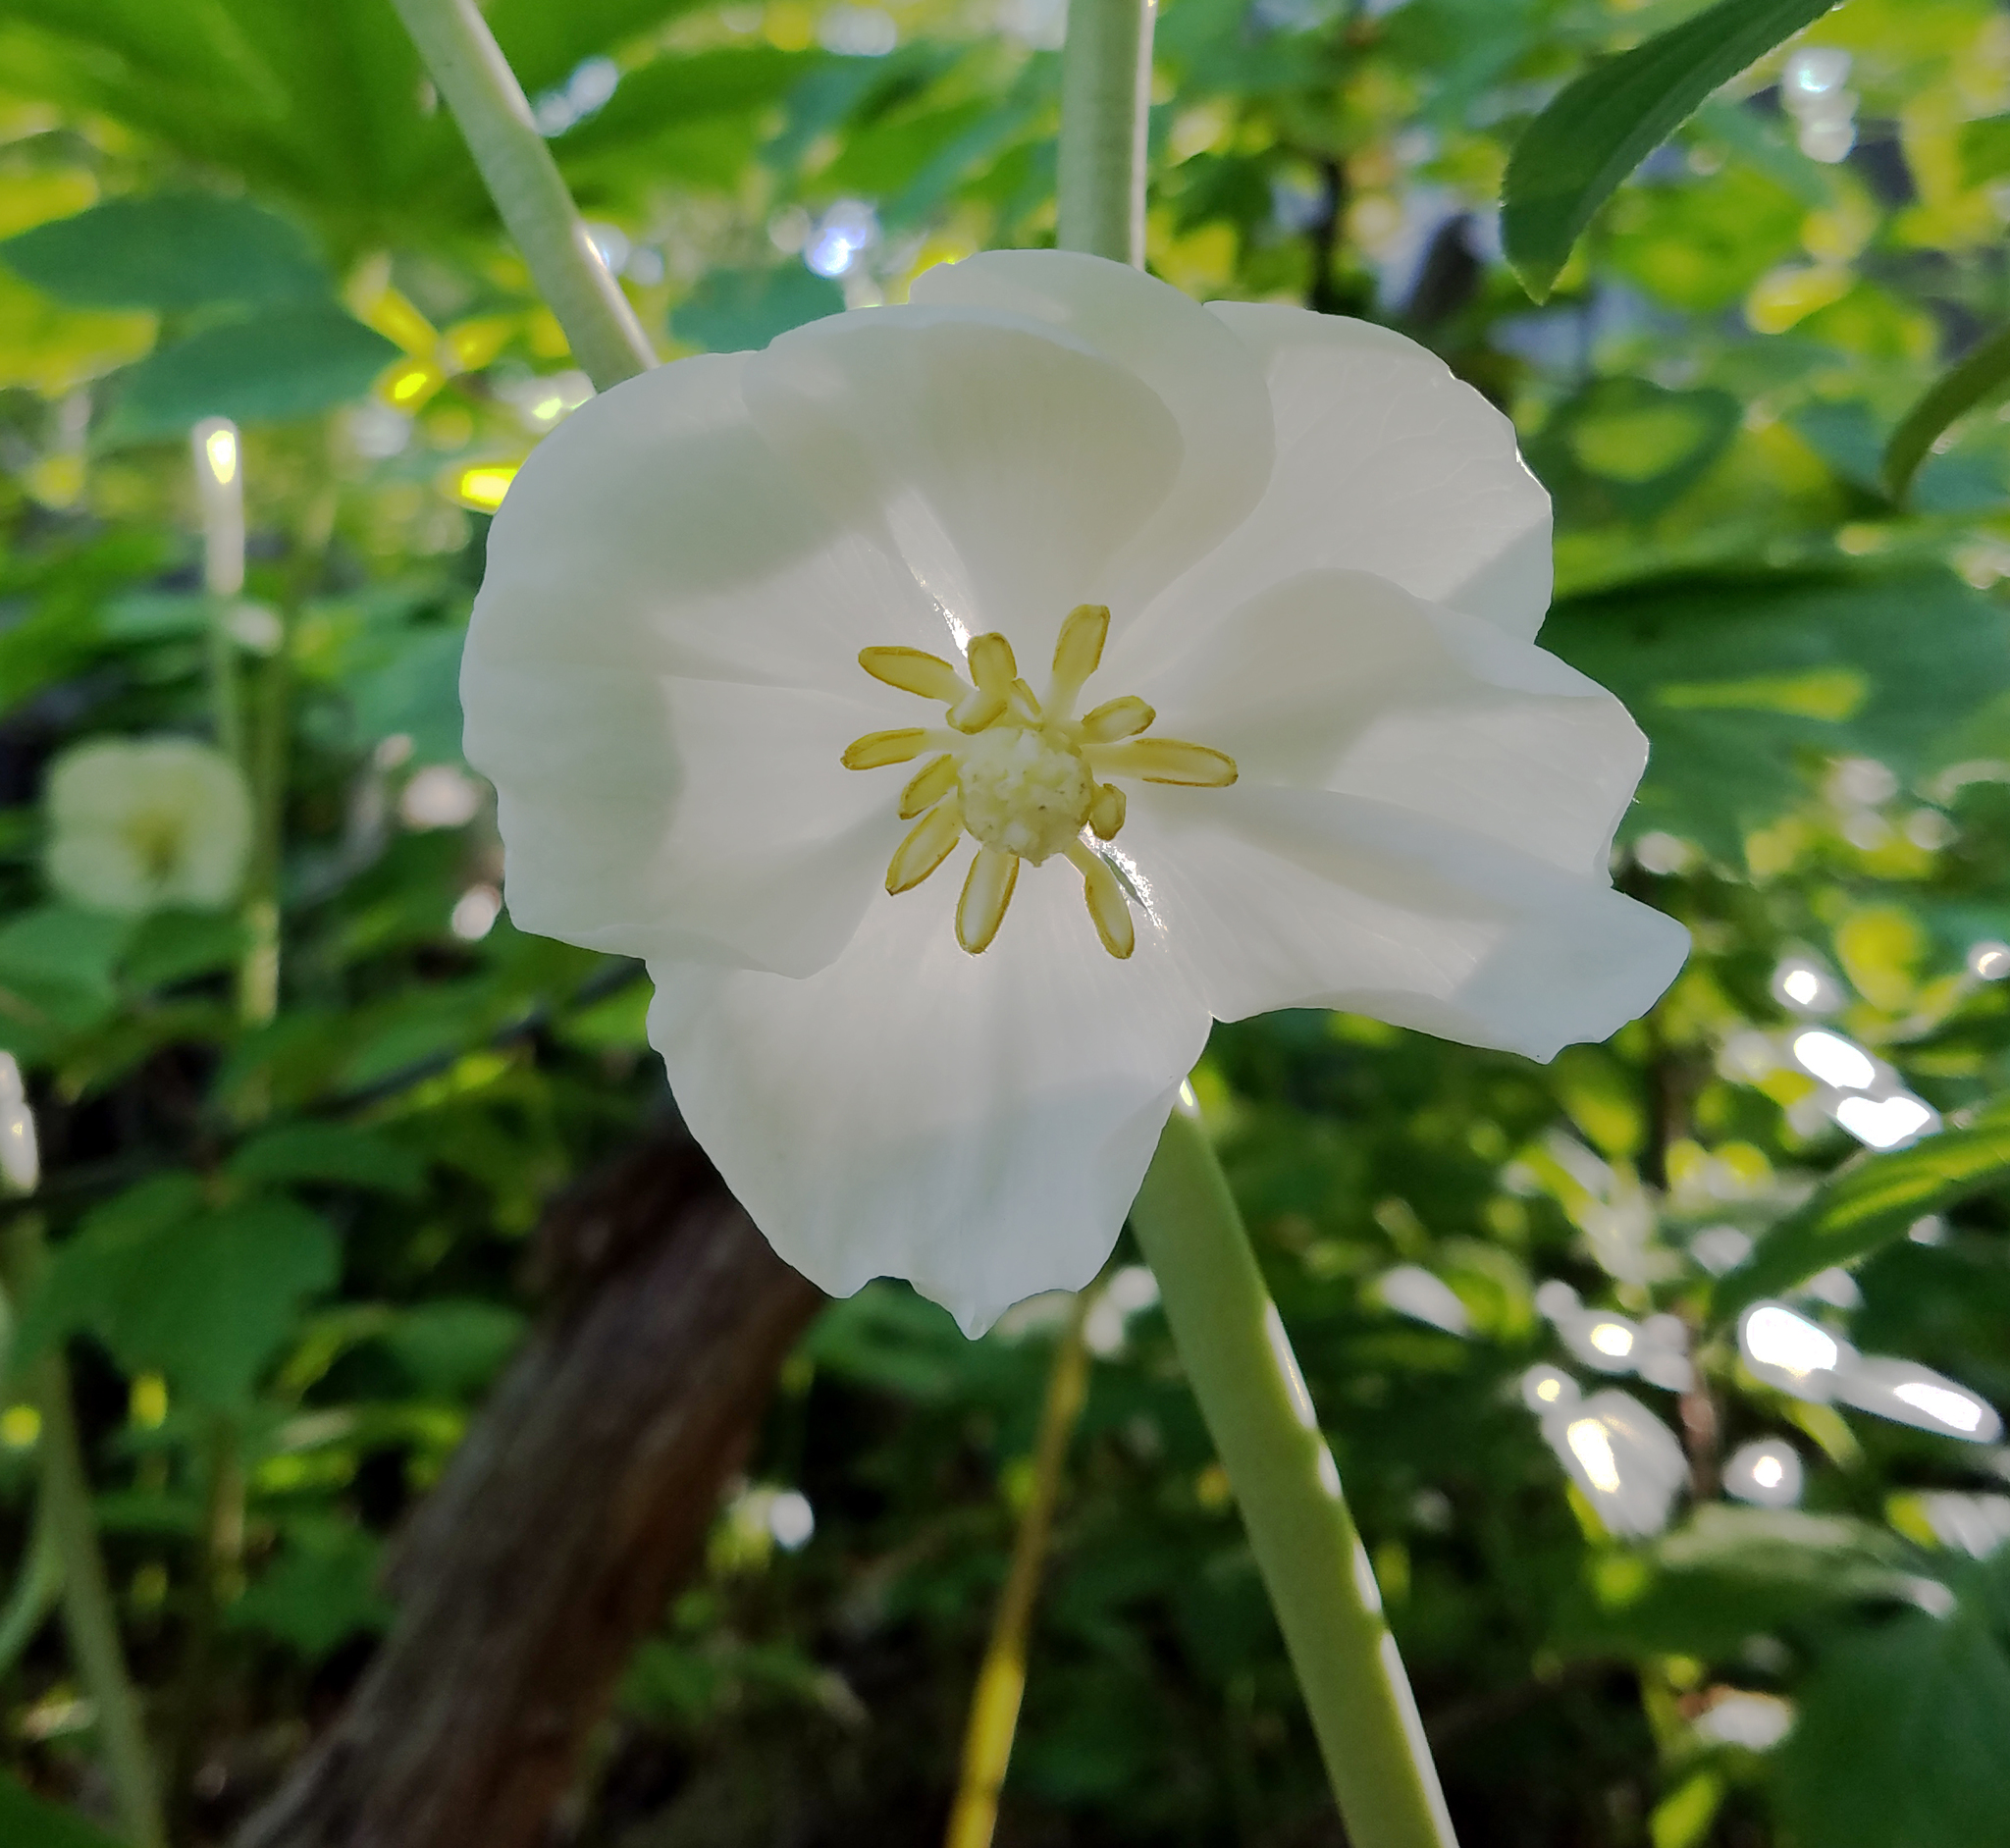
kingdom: Plantae
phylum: Tracheophyta
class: Magnoliopsida
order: Ranunculales
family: Berberidaceae
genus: Podophyllum
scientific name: Podophyllum peltatum
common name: Wild mandrake
